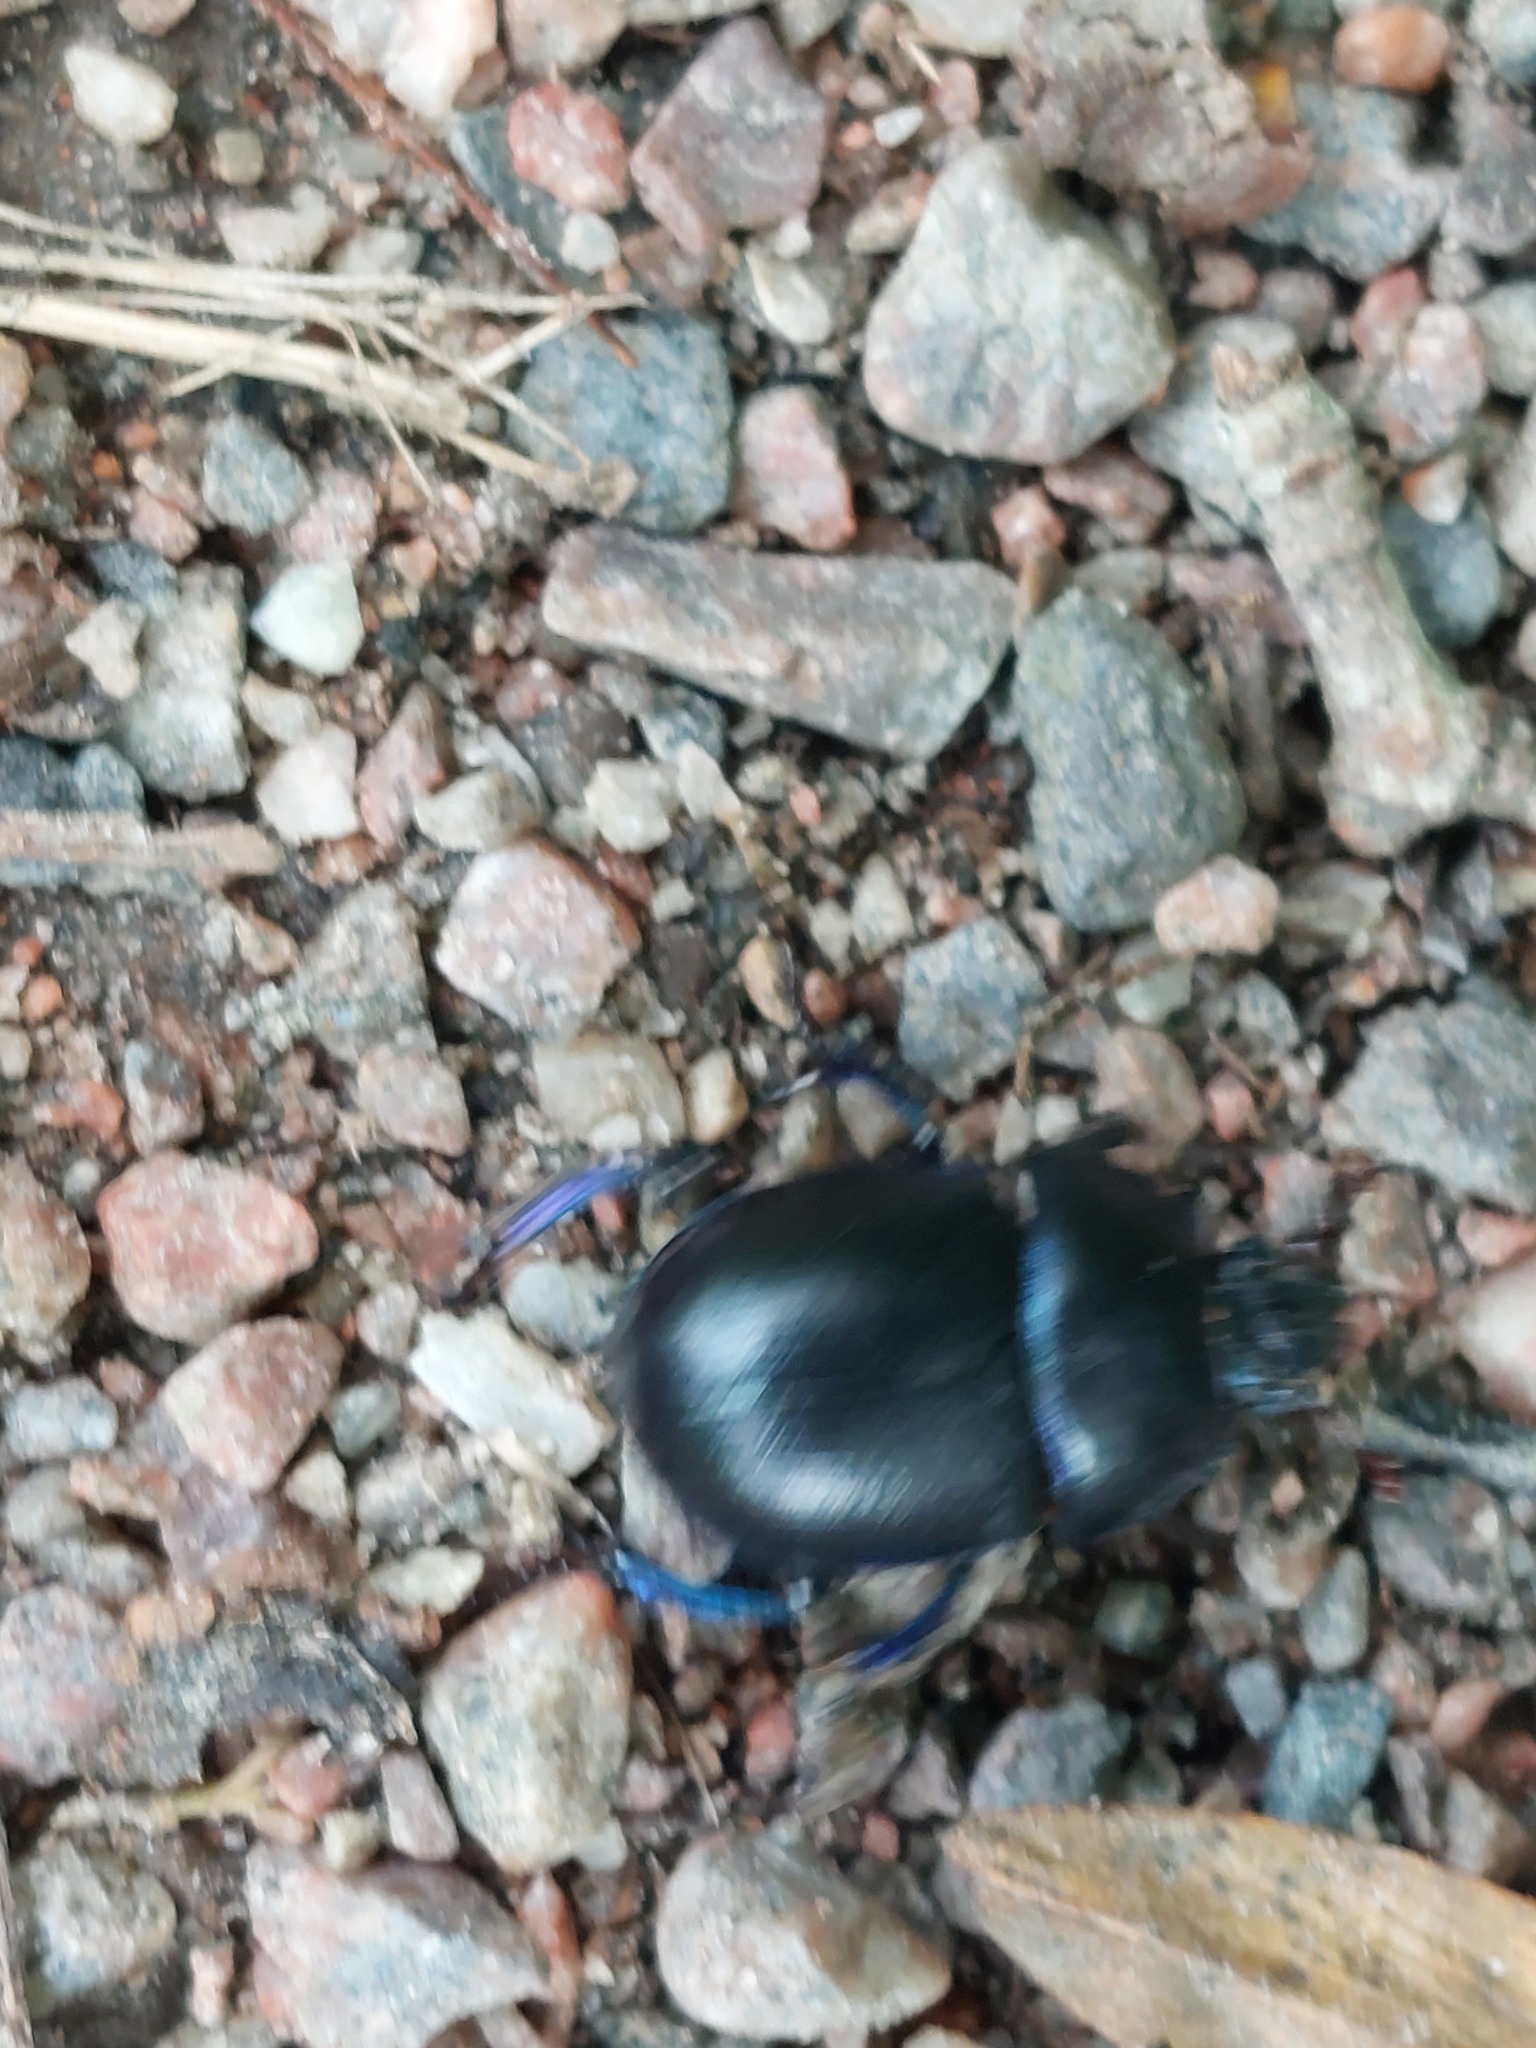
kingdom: Animalia
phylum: Arthropoda
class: Insecta
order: Coleoptera
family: Geotrupidae
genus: Anoplotrupes
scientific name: Anoplotrupes stercorosus
